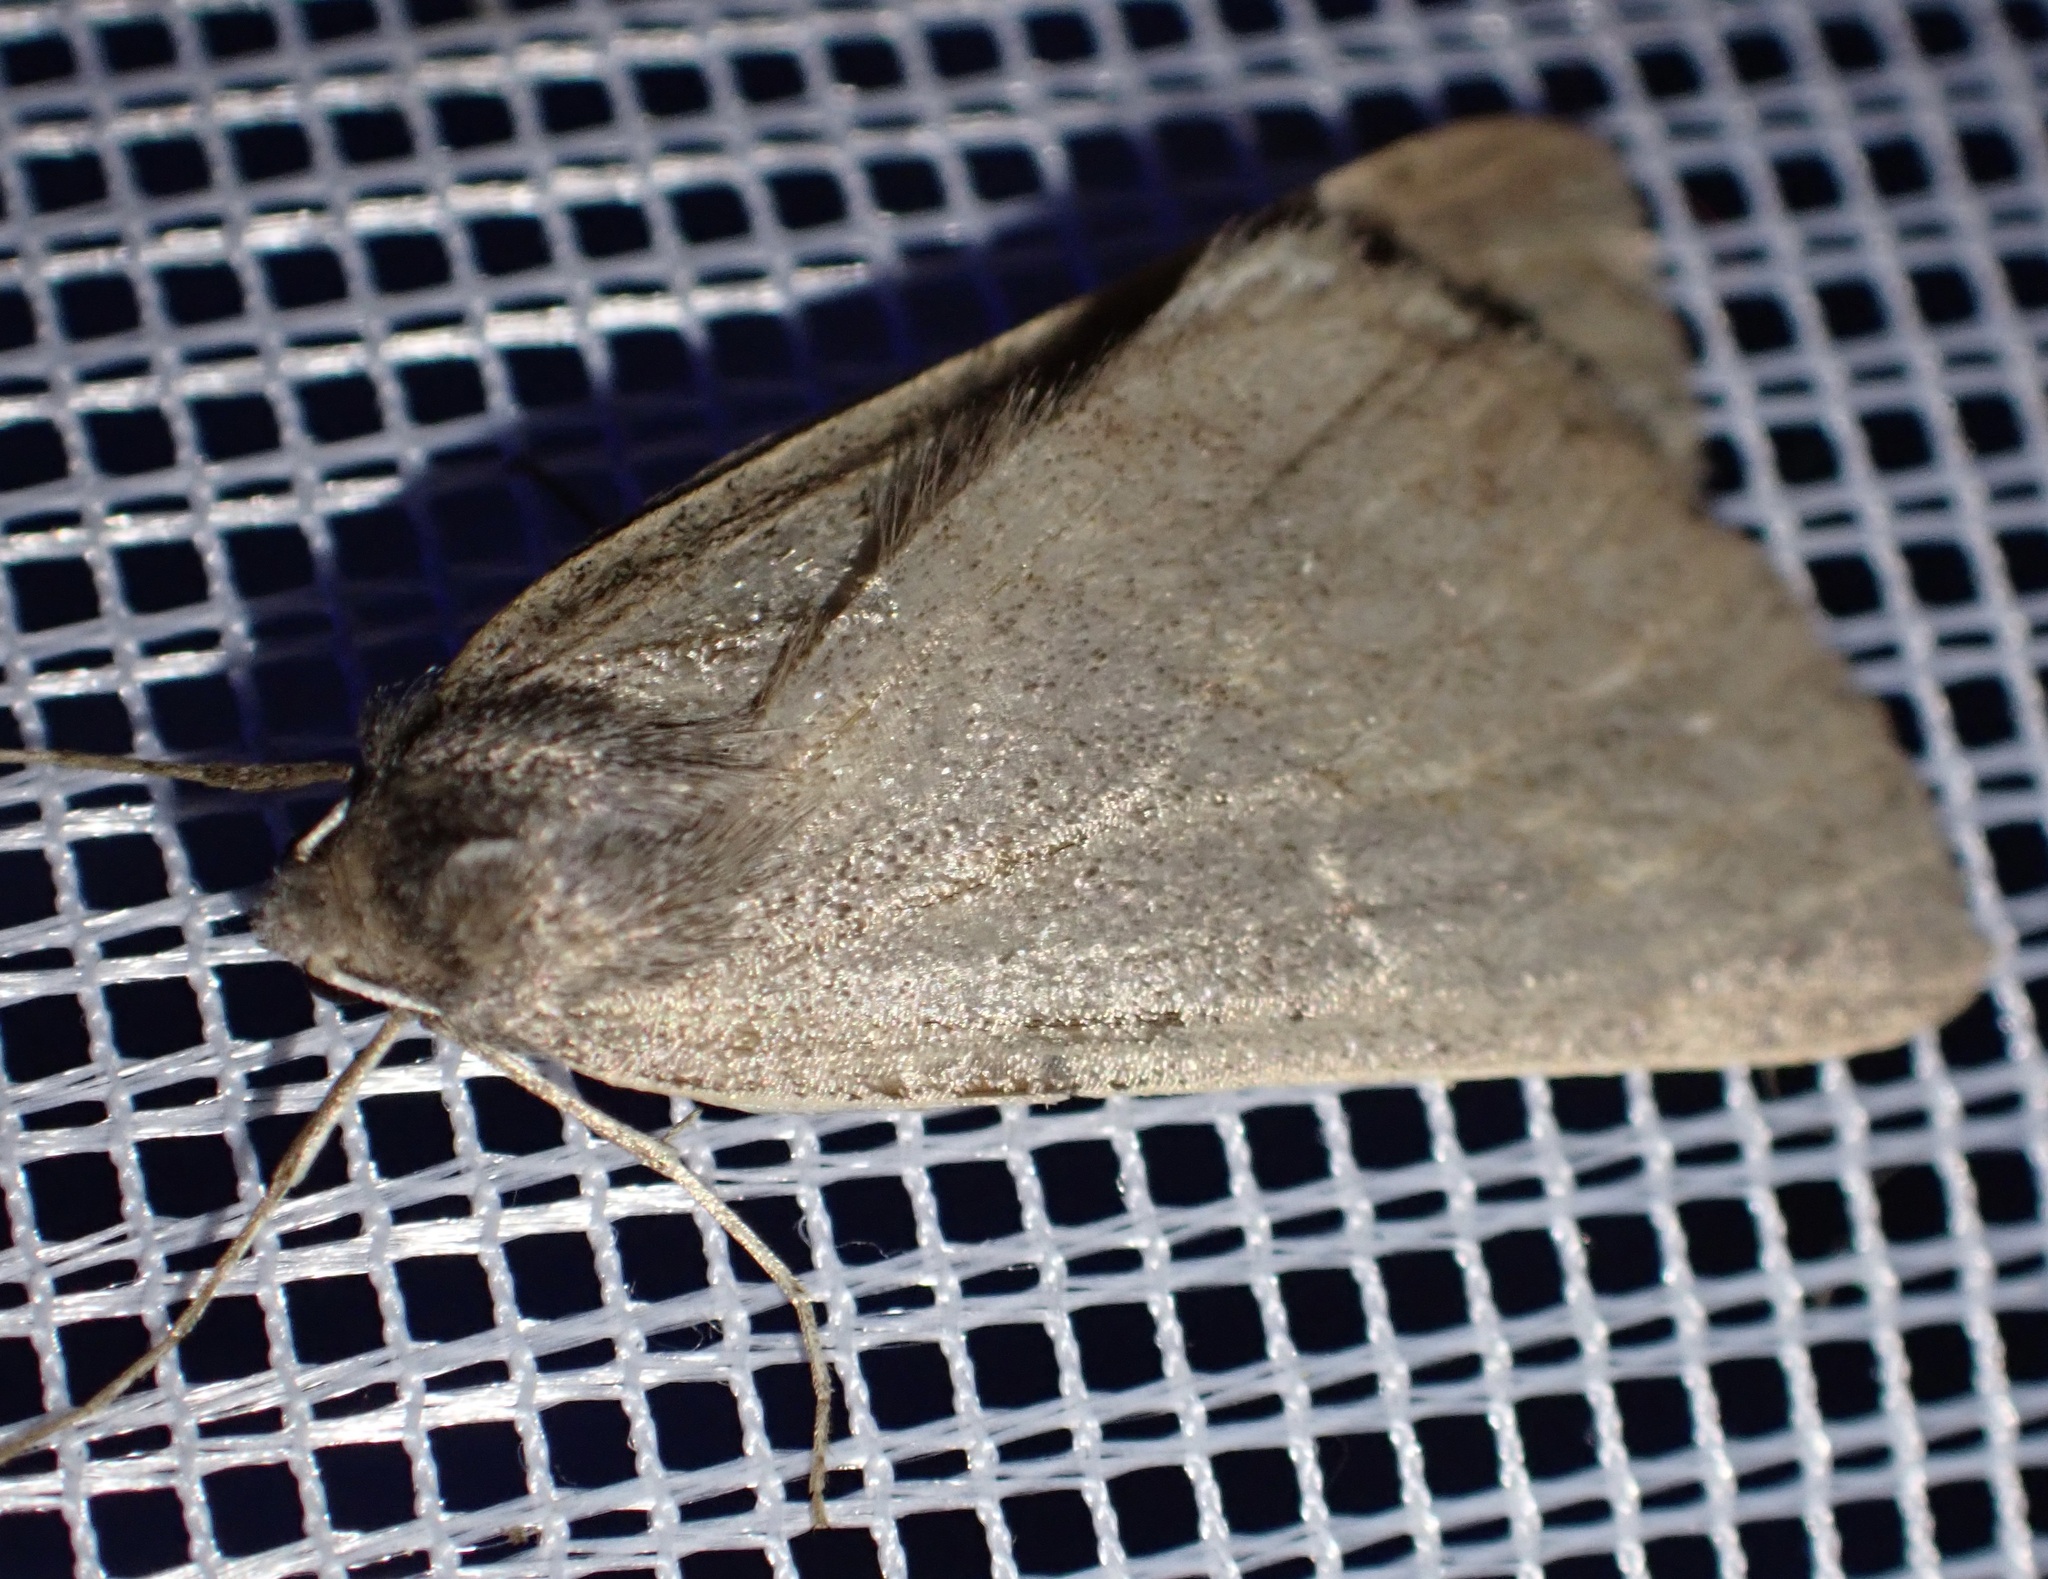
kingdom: Animalia
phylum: Arthropoda
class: Insecta
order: Lepidoptera
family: Geometridae
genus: Chemerina
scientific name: Chemerina caliginearia
